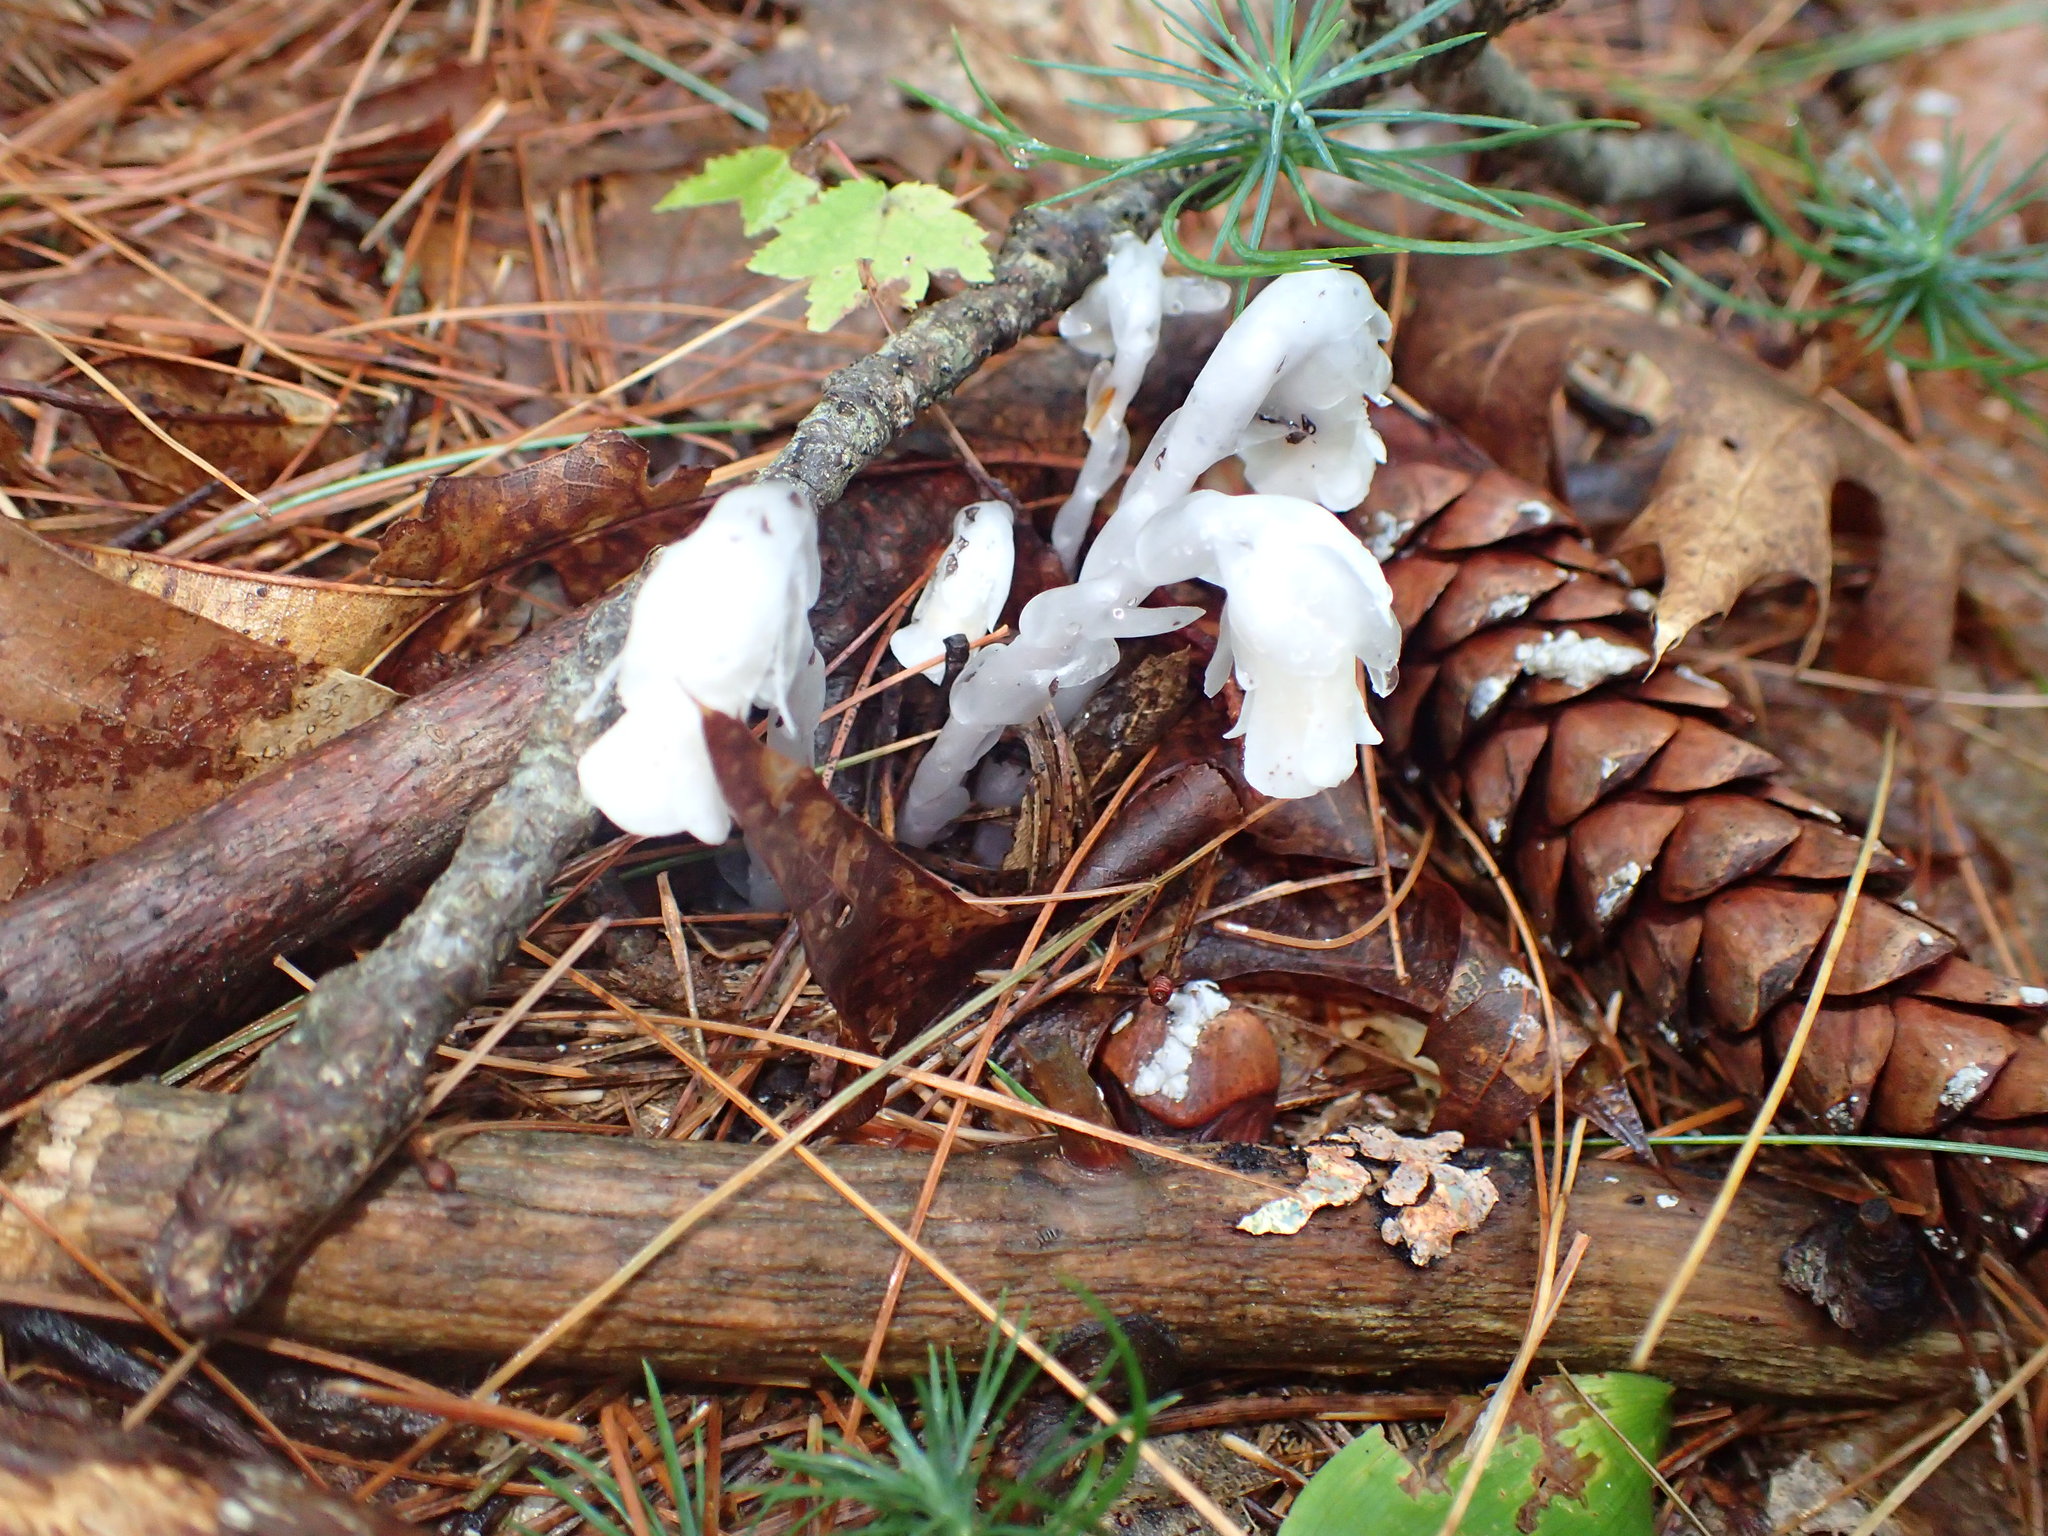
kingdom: Plantae
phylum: Tracheophyta
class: Magnoliopsida
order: Ericales
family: Ericaceae
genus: Monotropa
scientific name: Monotropa uniflora
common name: Convulsion root
